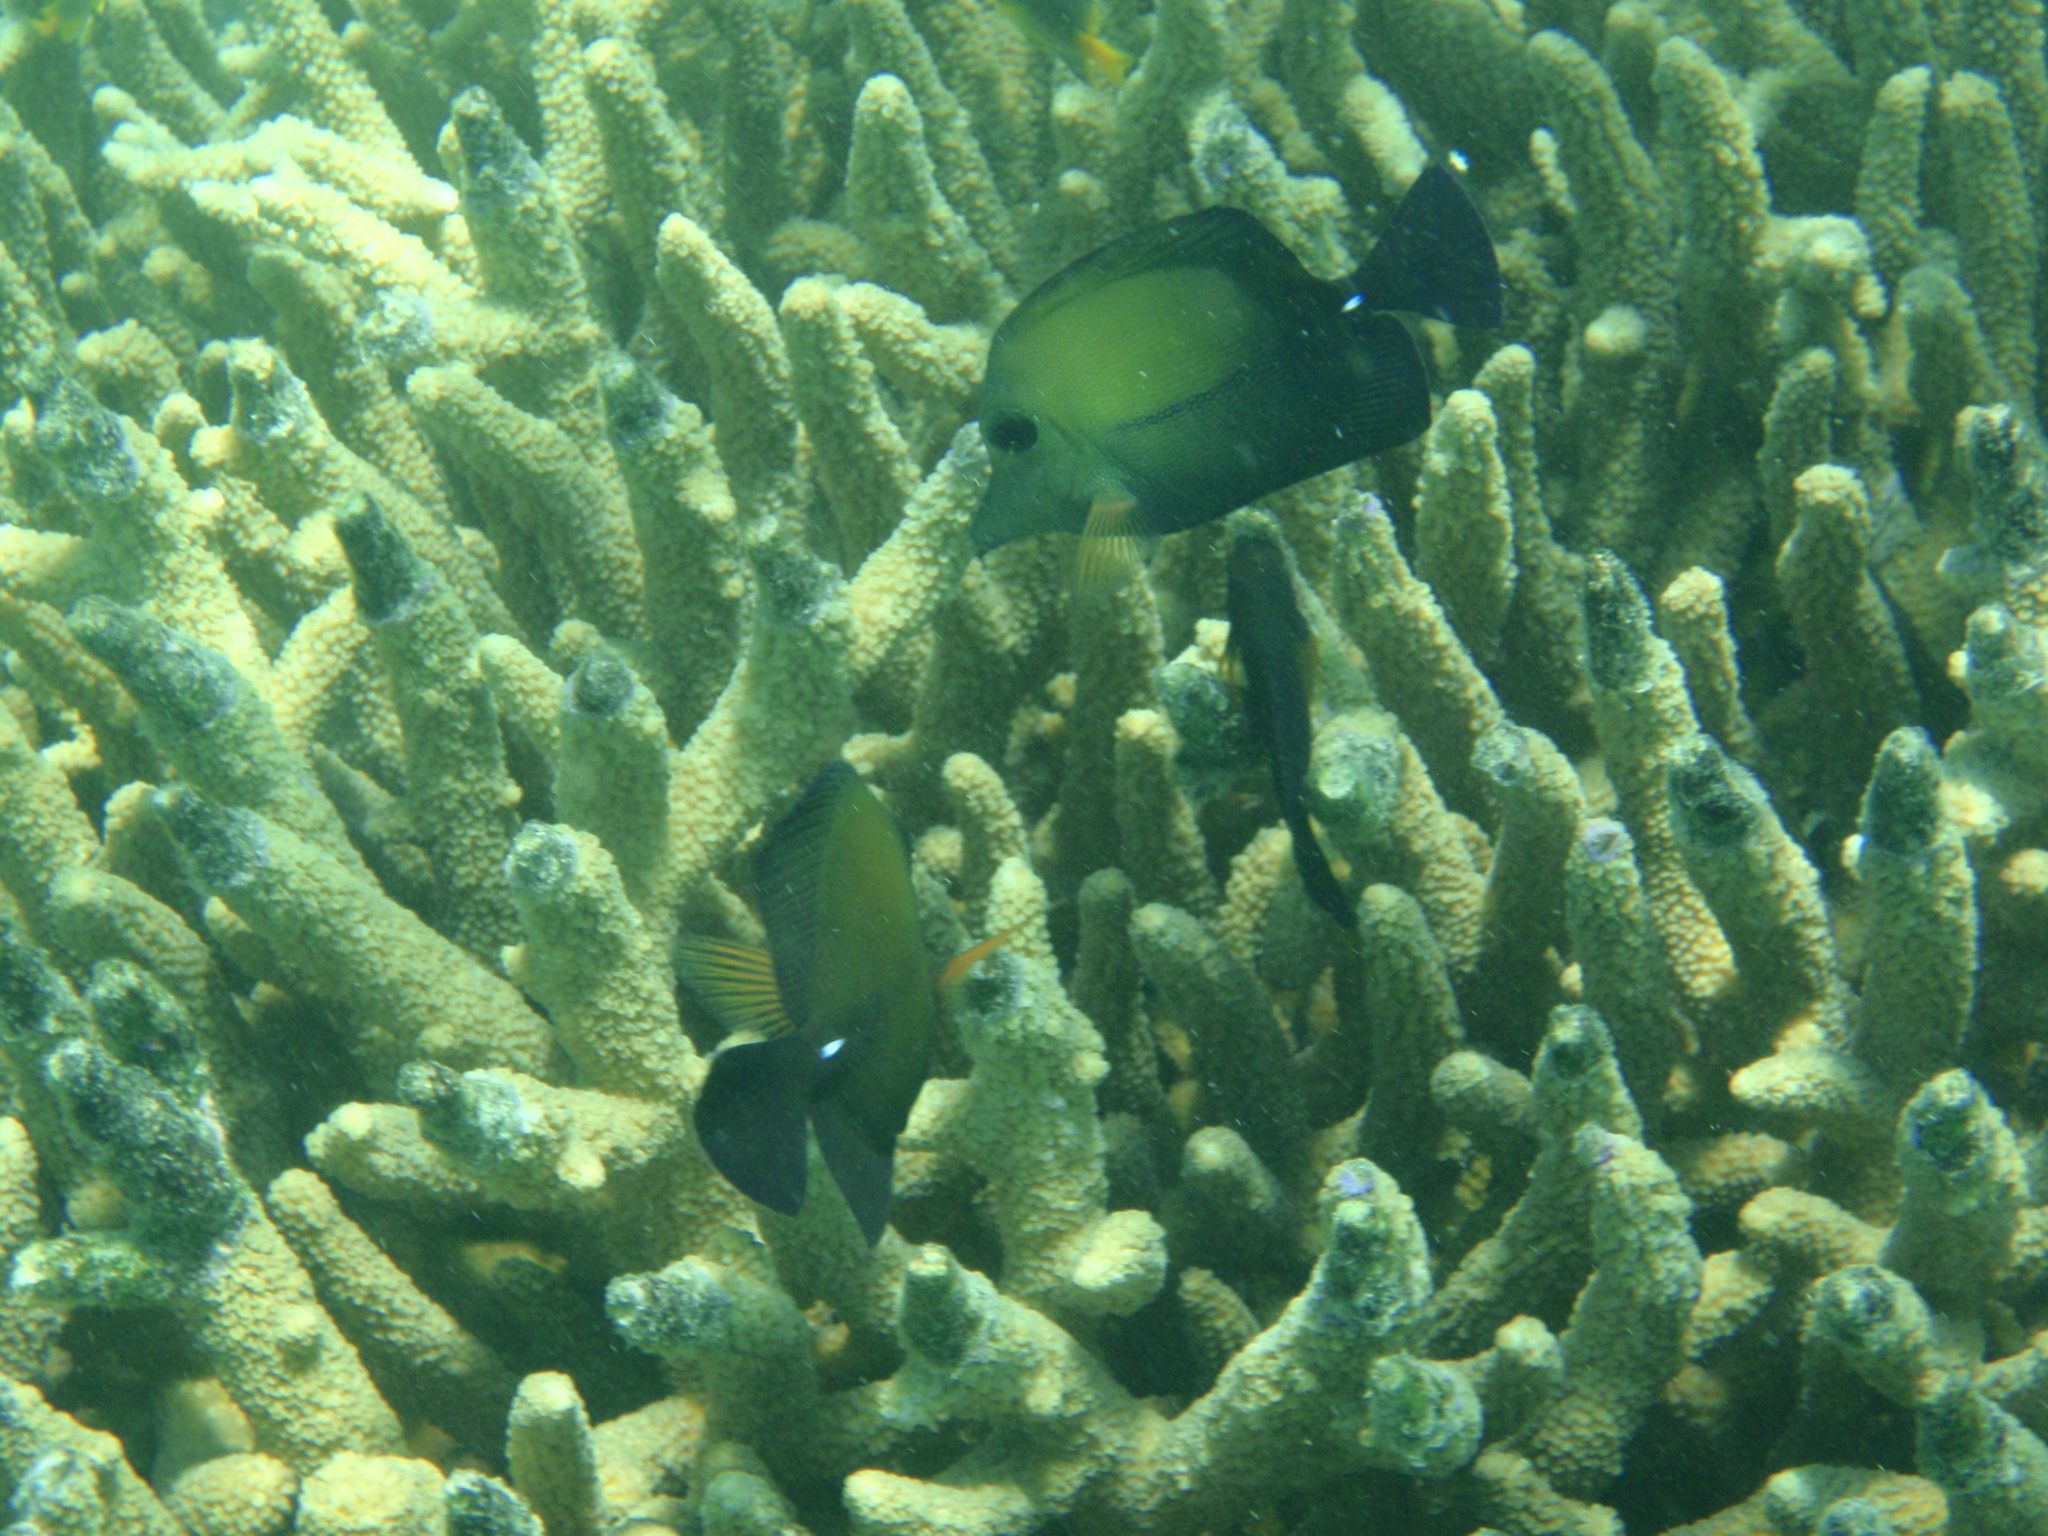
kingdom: Animalia
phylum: Chordata
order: Perciformes
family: Acanthuridae
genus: Zebrasoma
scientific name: Zebrasoma scopas
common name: Twotone tang
